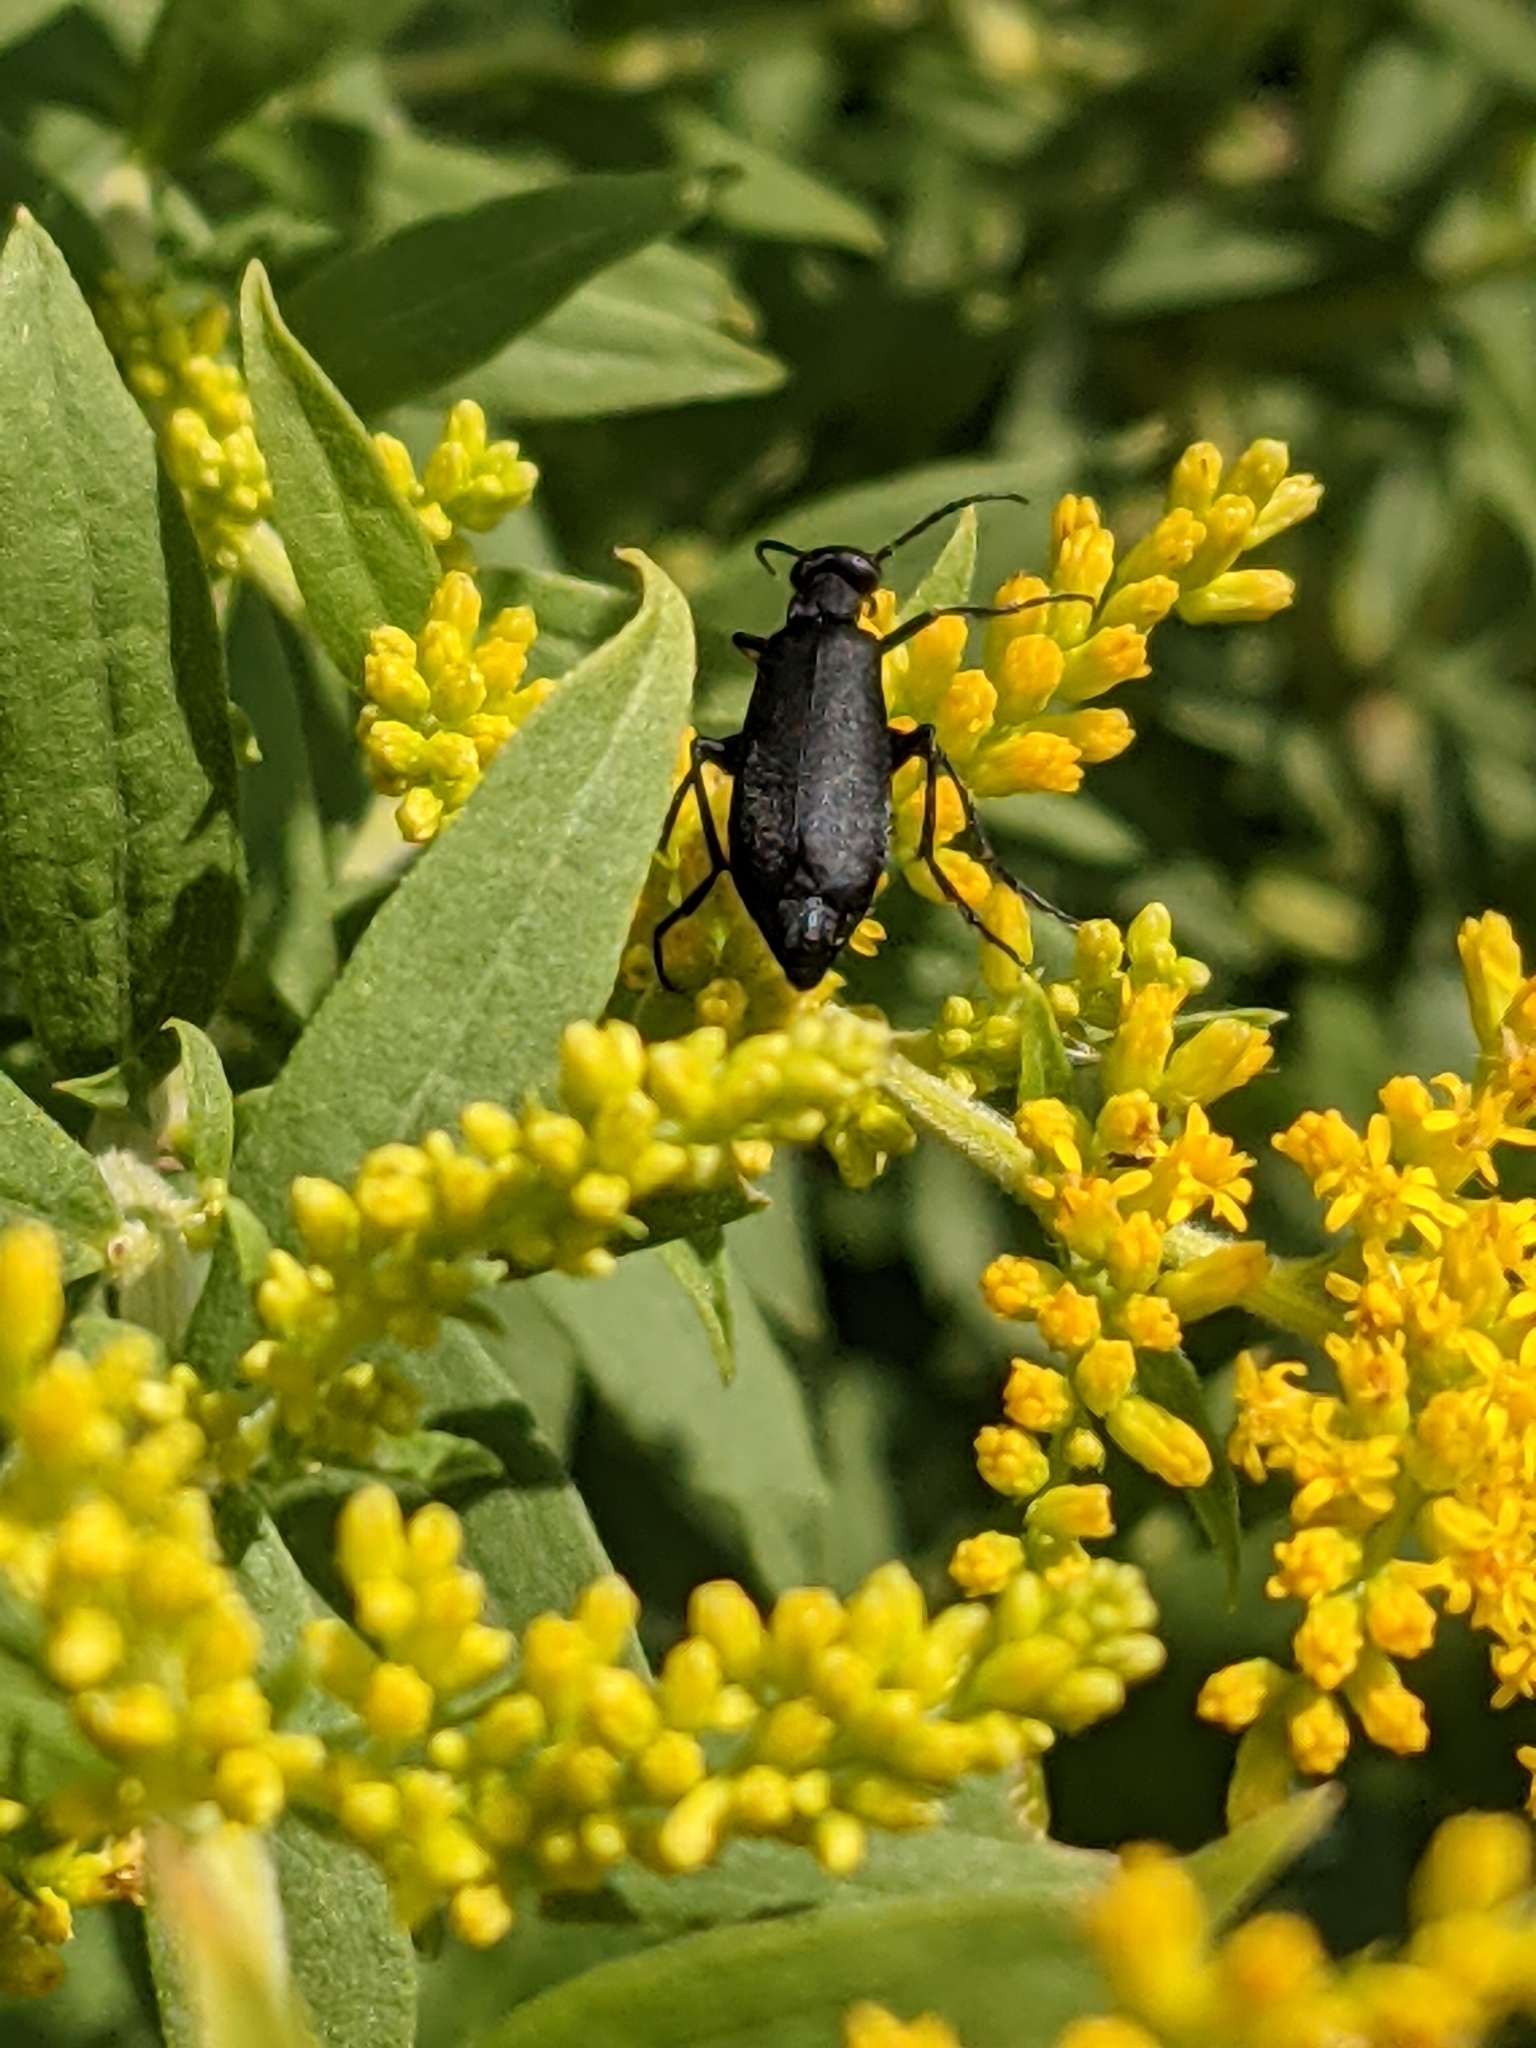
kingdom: Animalia
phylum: Arthropoda
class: Insecta
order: Coleoptera
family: Meloidae
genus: Epicauta
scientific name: Epicauta pensylvanica
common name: Black blister beetle
